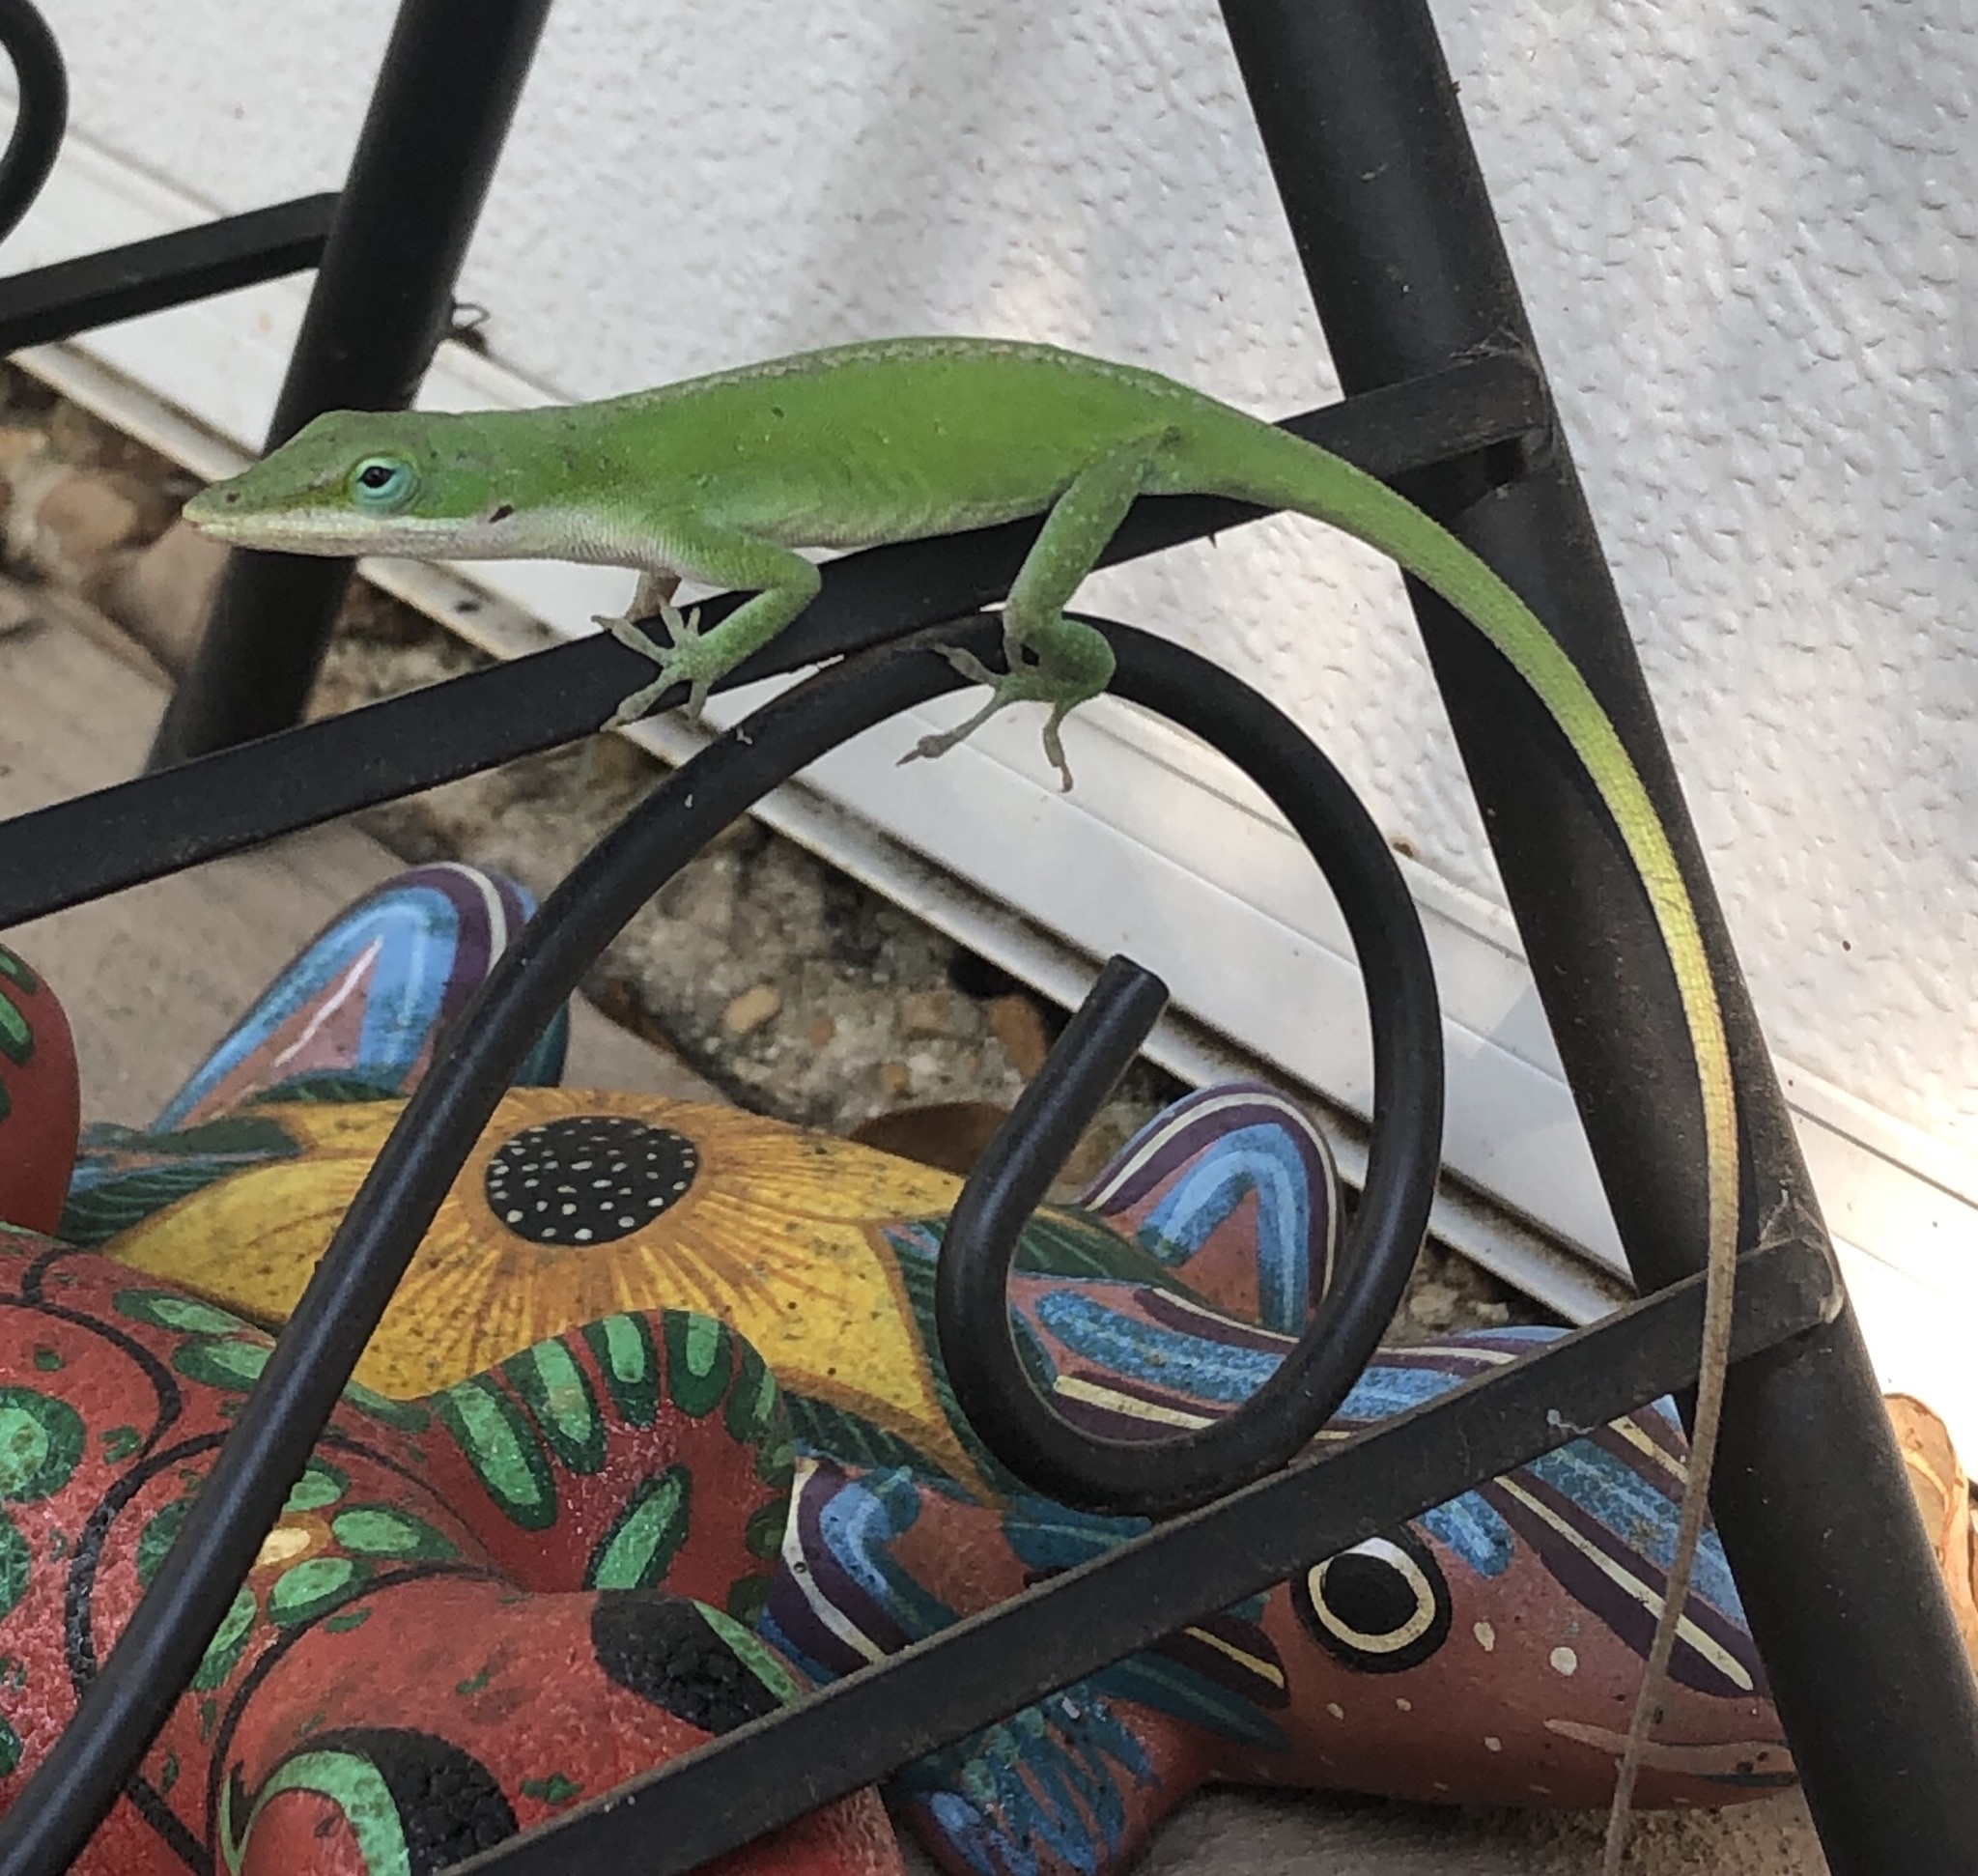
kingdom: Animalia
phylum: Chordata
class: Squamata
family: Dactyloidae
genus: Anolis
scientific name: Anolis carolinensis
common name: Green anole
